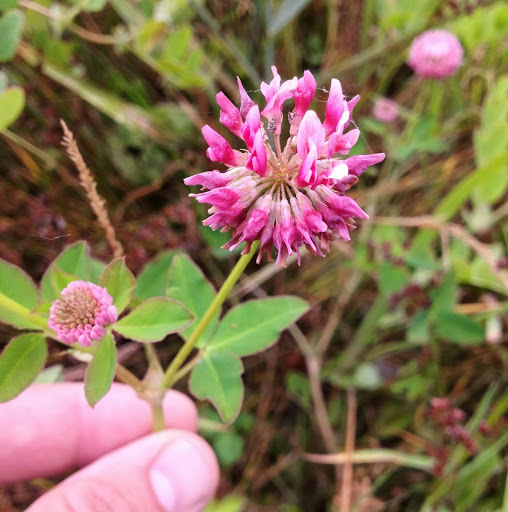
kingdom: Plantae
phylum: Tracheophyta
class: Magnoliopsida
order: Fabales
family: Fabaceae
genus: Trifolium
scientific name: Trifolium hybridum
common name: Alsike clover
